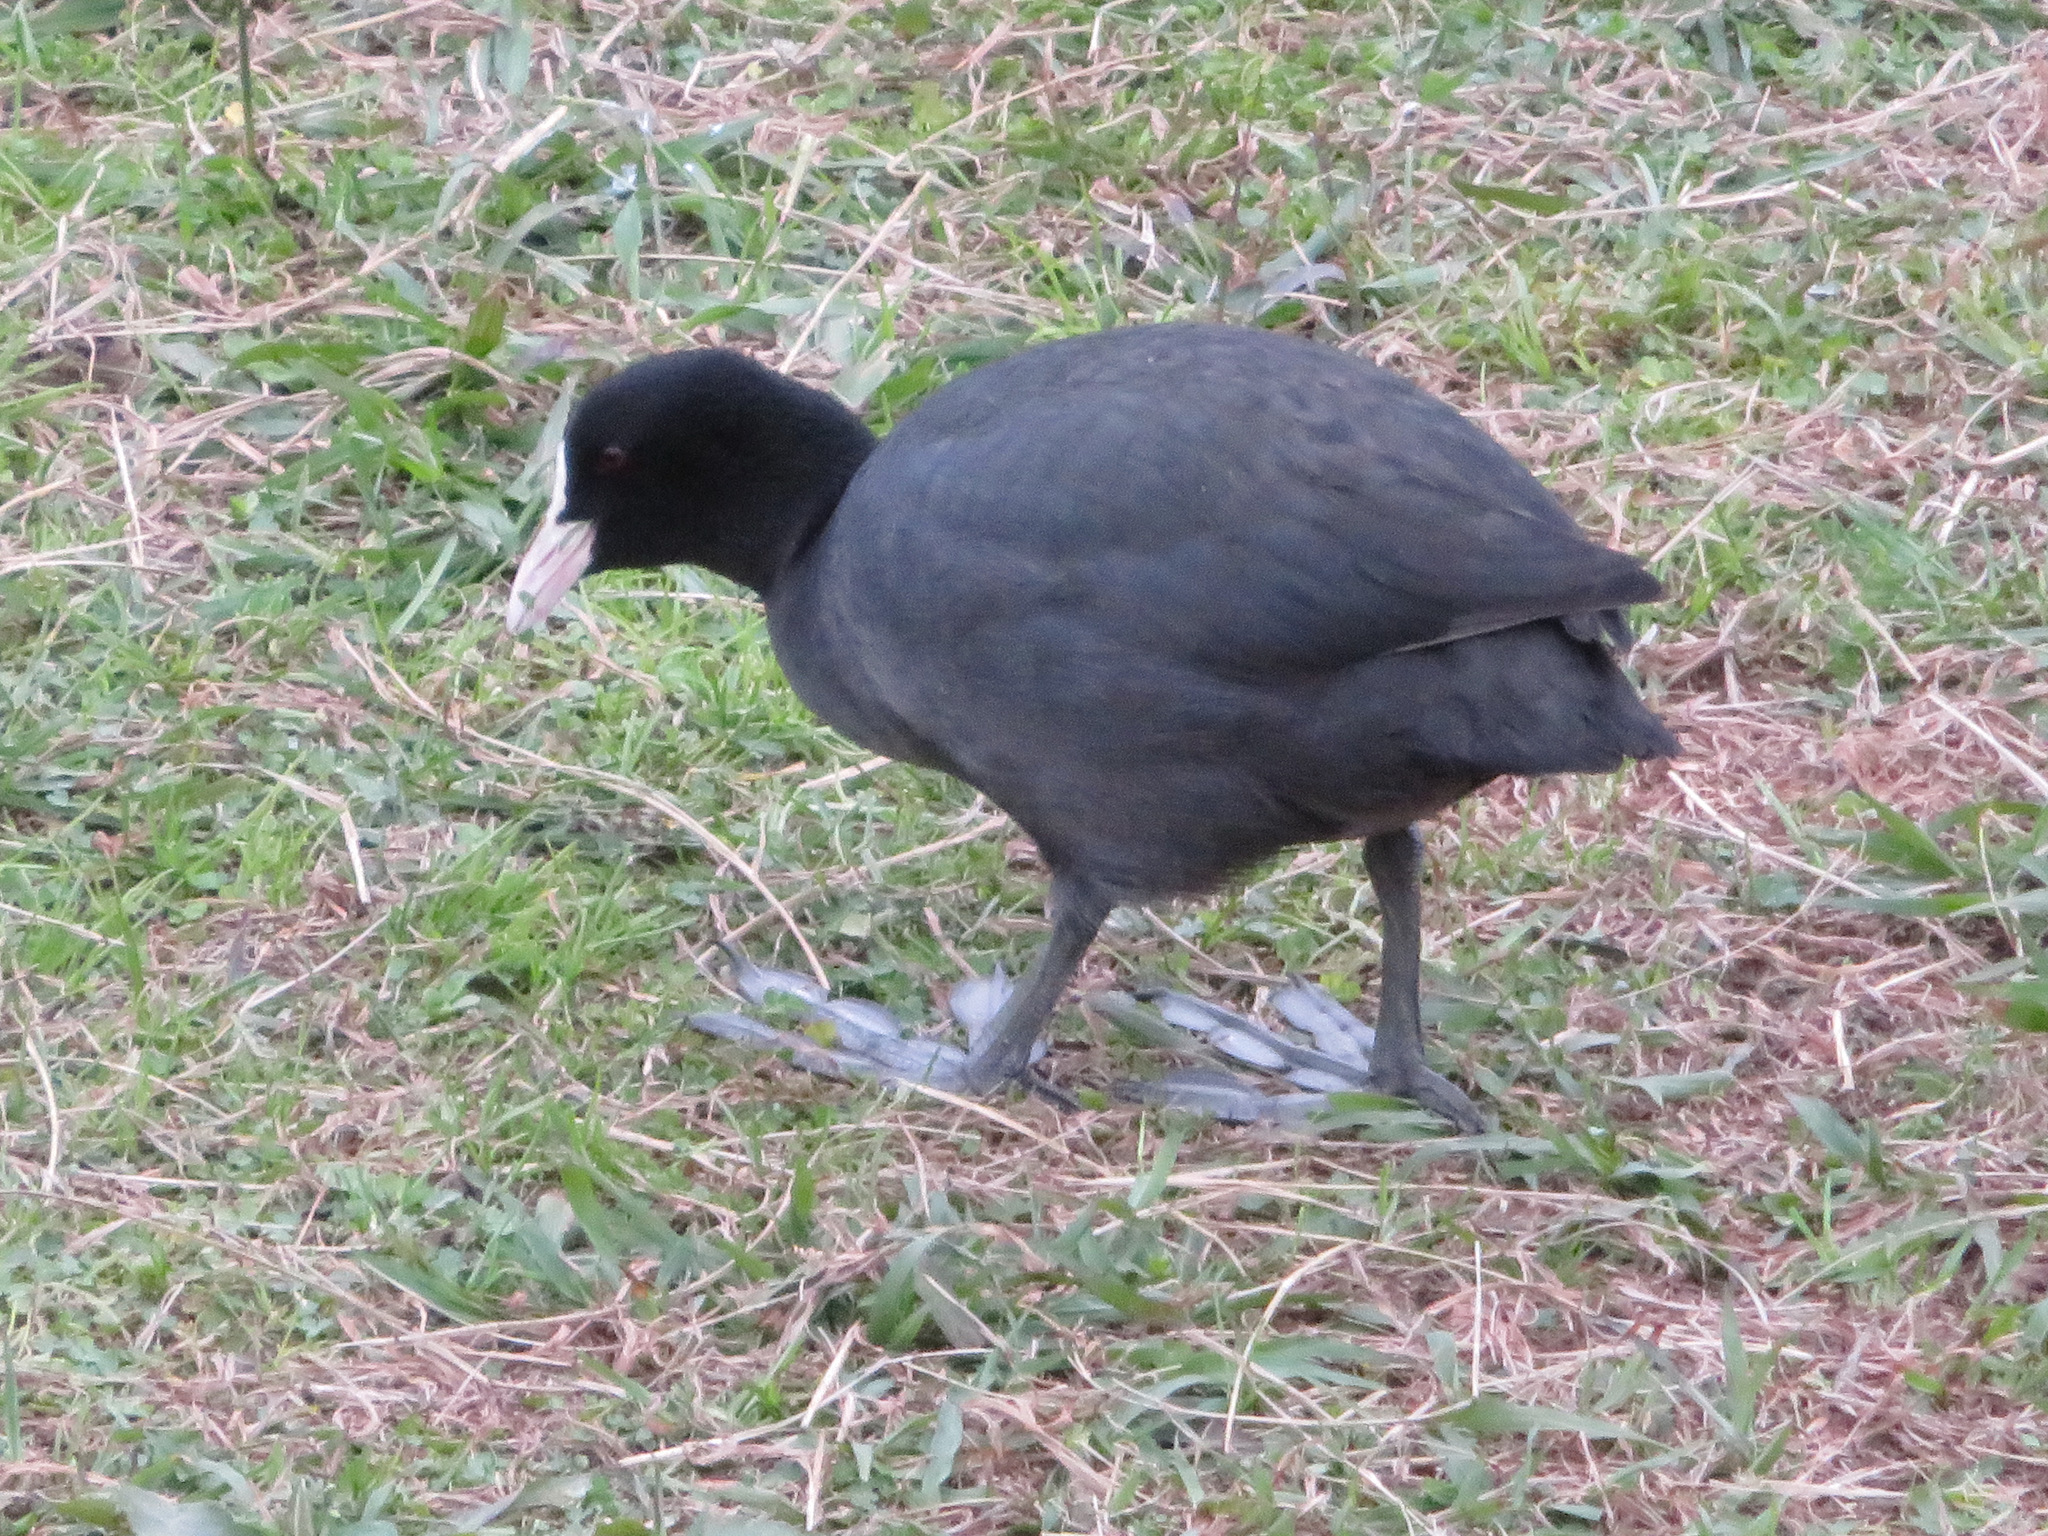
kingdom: Animalia
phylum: Chordata
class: Aves
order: Gruiformes
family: Rallidae
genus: Fulica
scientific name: Fulica atra
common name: Eurasian coot
